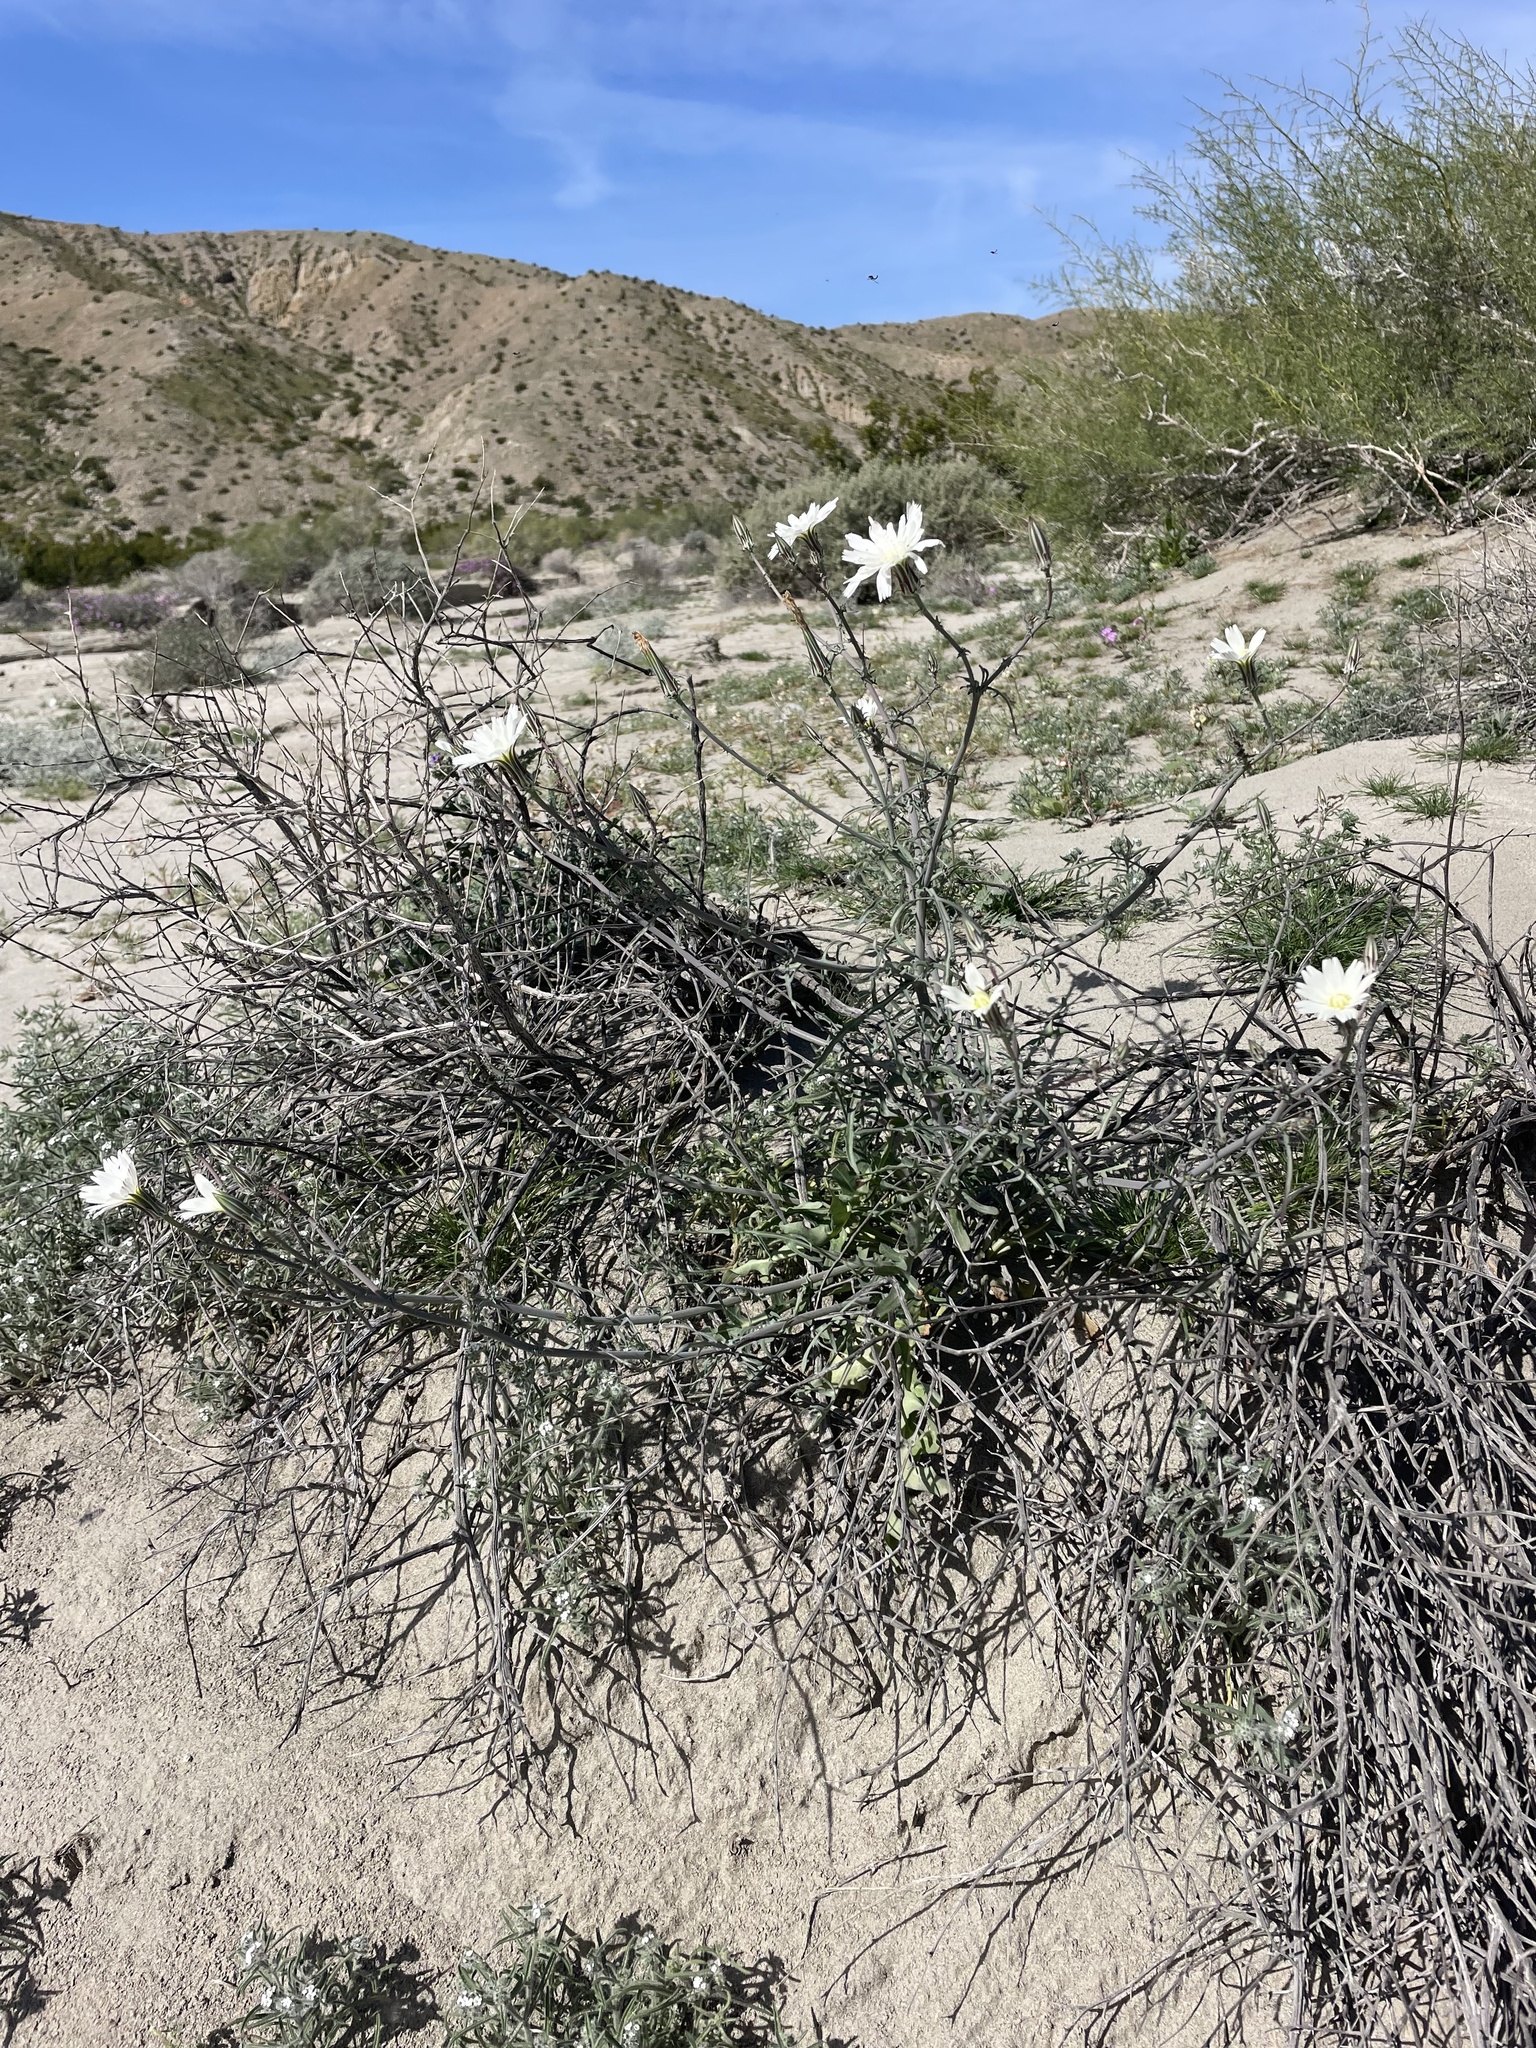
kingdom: Plantae
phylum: Tracheophyta
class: Magnoliopsida
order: Asterales
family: Asteraceae
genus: Rafinesquia
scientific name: Rafinesquia neomexicana
